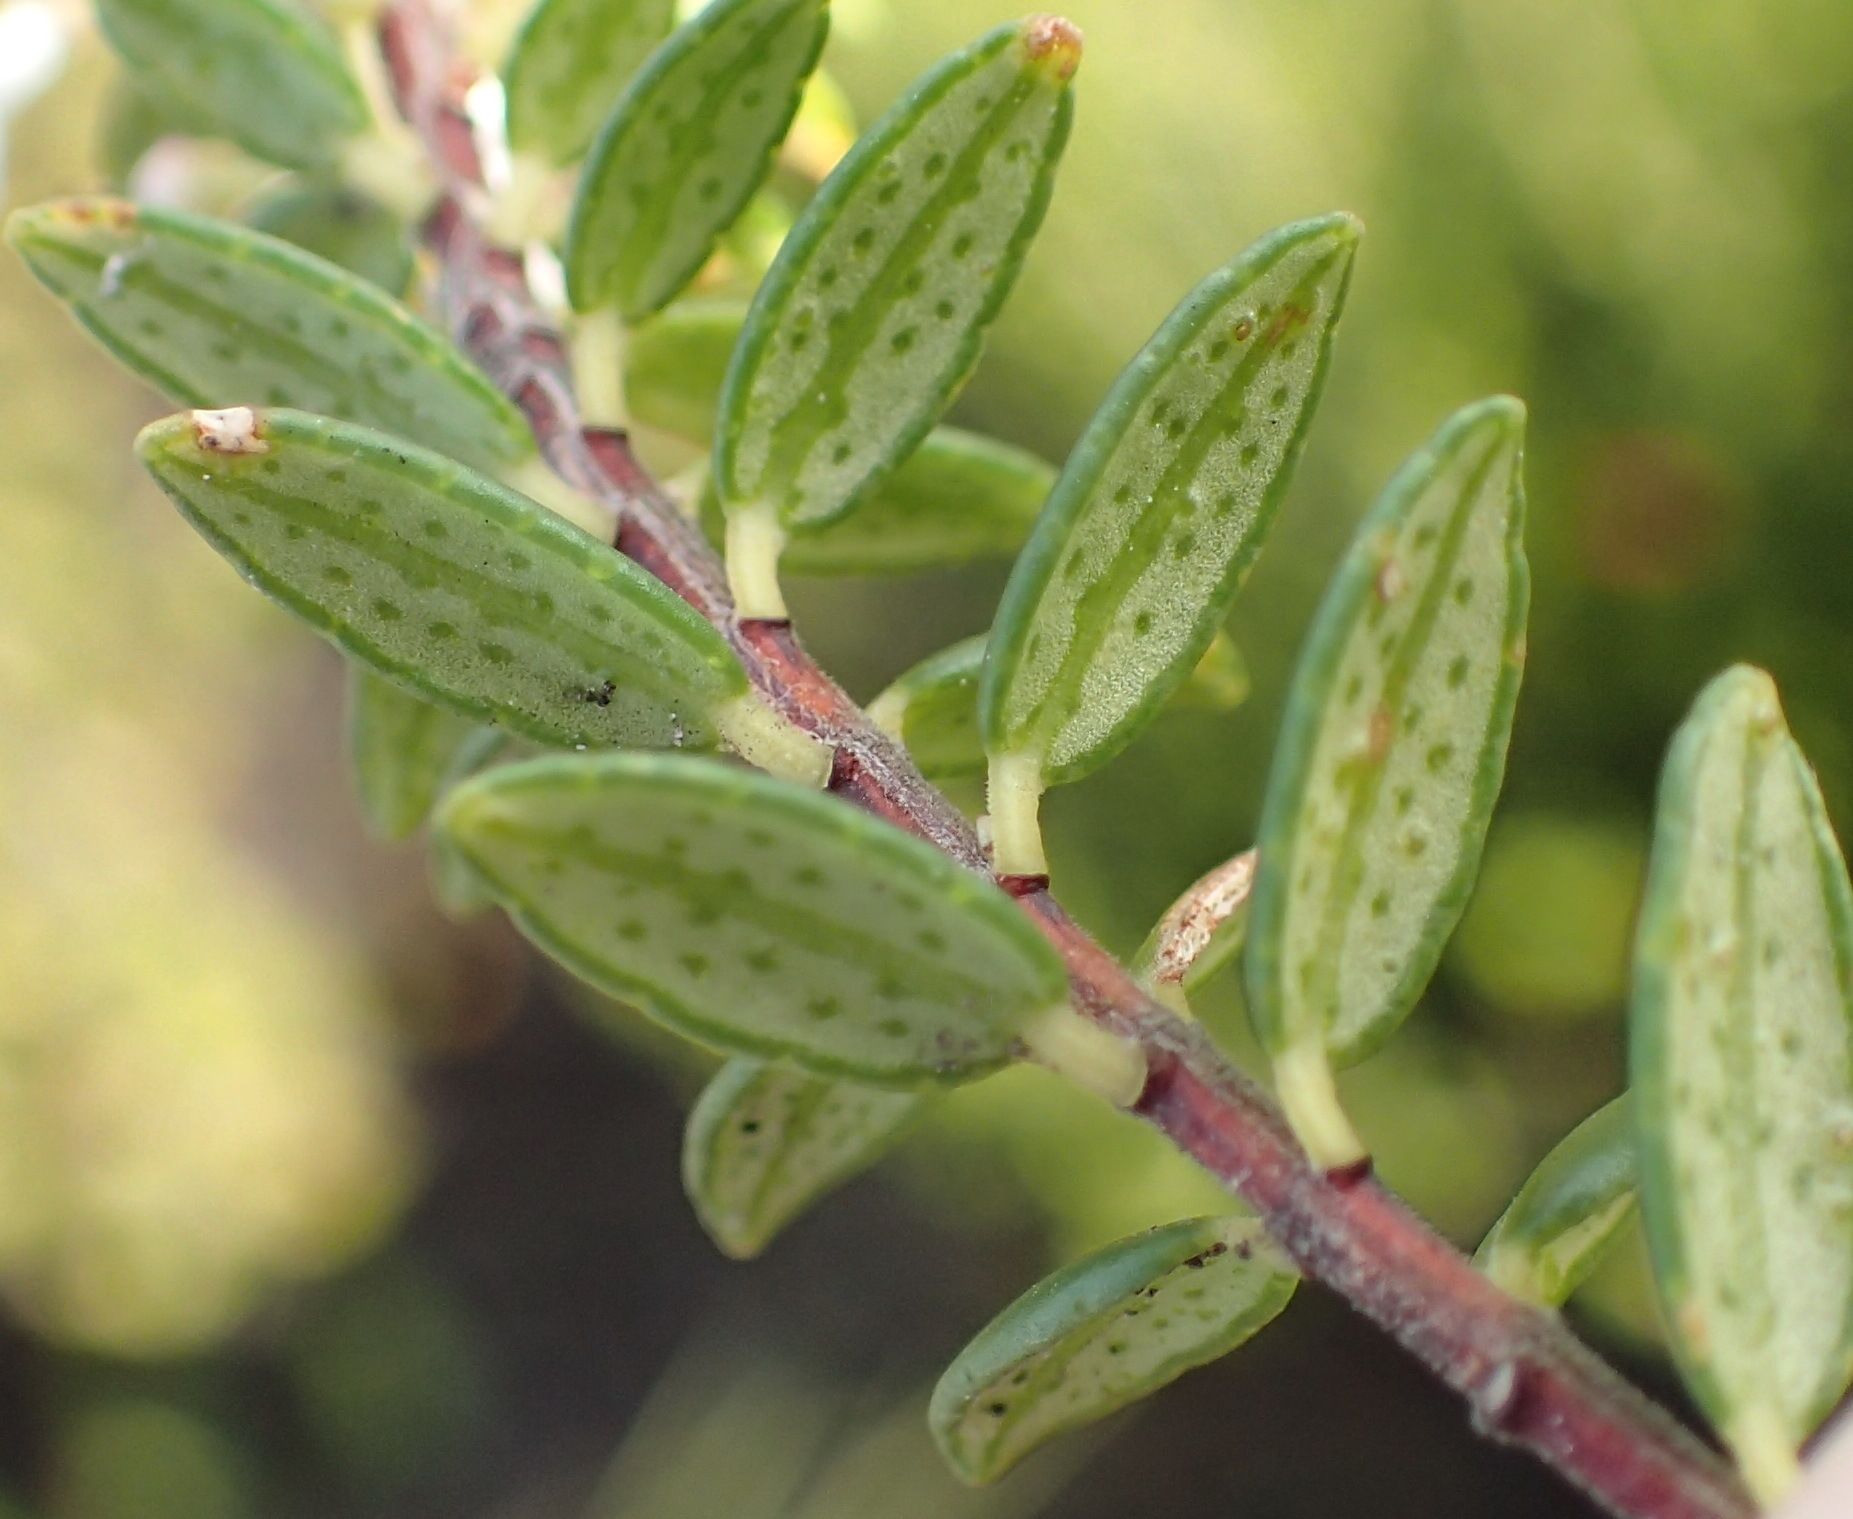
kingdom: Plantae
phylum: Tracheophyta
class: Magnoliopsida
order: Sapindales
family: Rutaceae
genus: Agathosma
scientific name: Agathosma ovata
